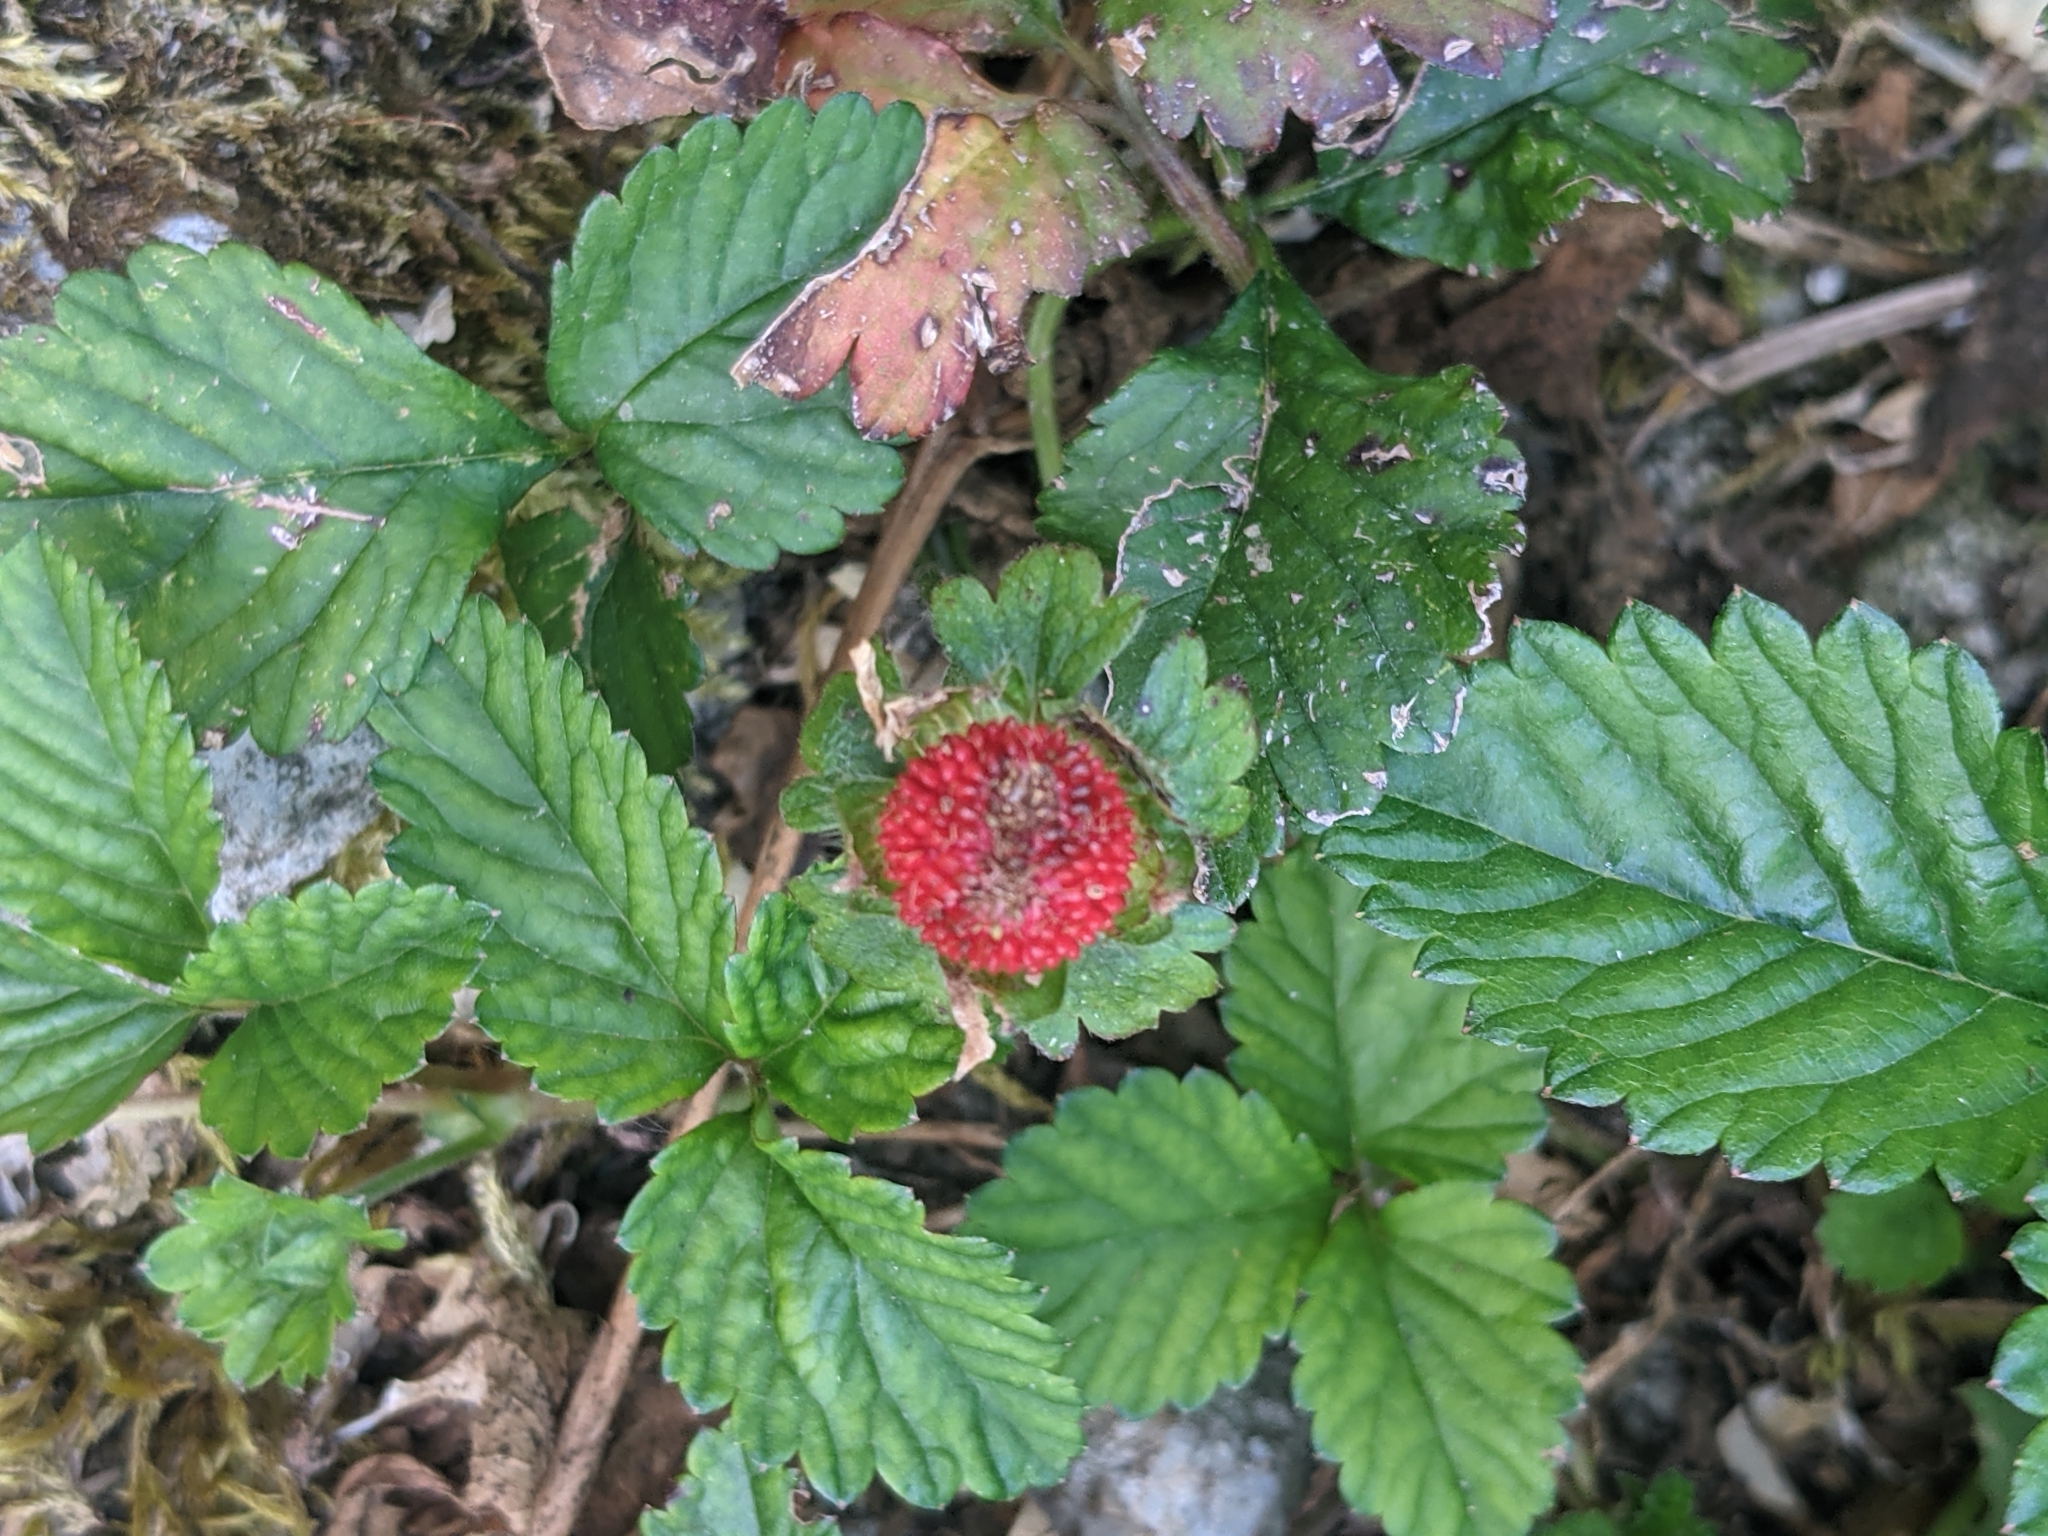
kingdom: Plantae
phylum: Tracheophyta
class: Magnoliopsida
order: Rosales
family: Rosaceae
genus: Potentilla
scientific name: Potentilla indica
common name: Yellow-flowered strawberry
